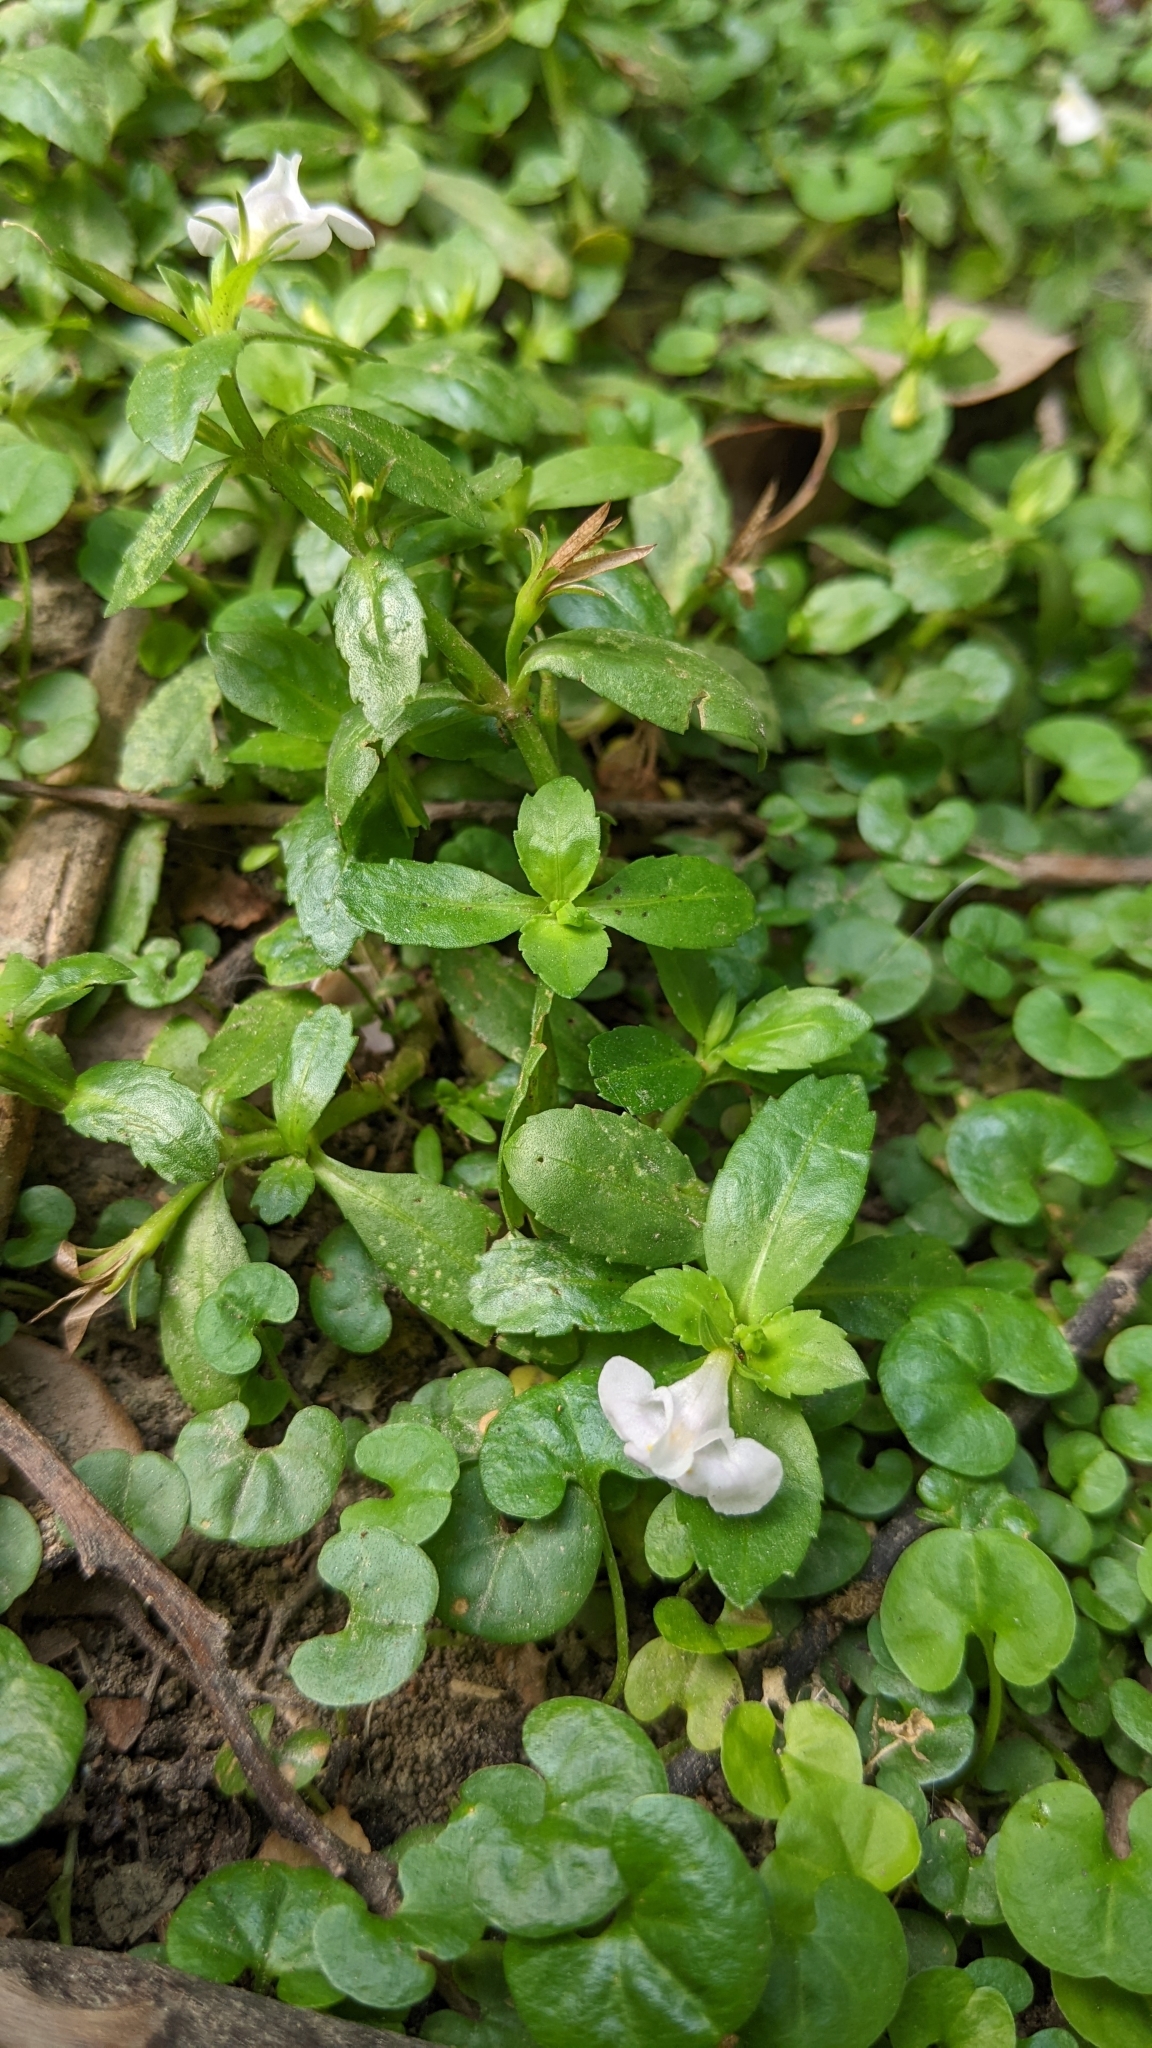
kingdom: Plantae
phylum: Tracheophyta
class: Magnoliopsida
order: Lamiales
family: Linderniaceae
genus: Bonnaya
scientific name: Bonnaya antipoda
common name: Sparrow false pimpernel
